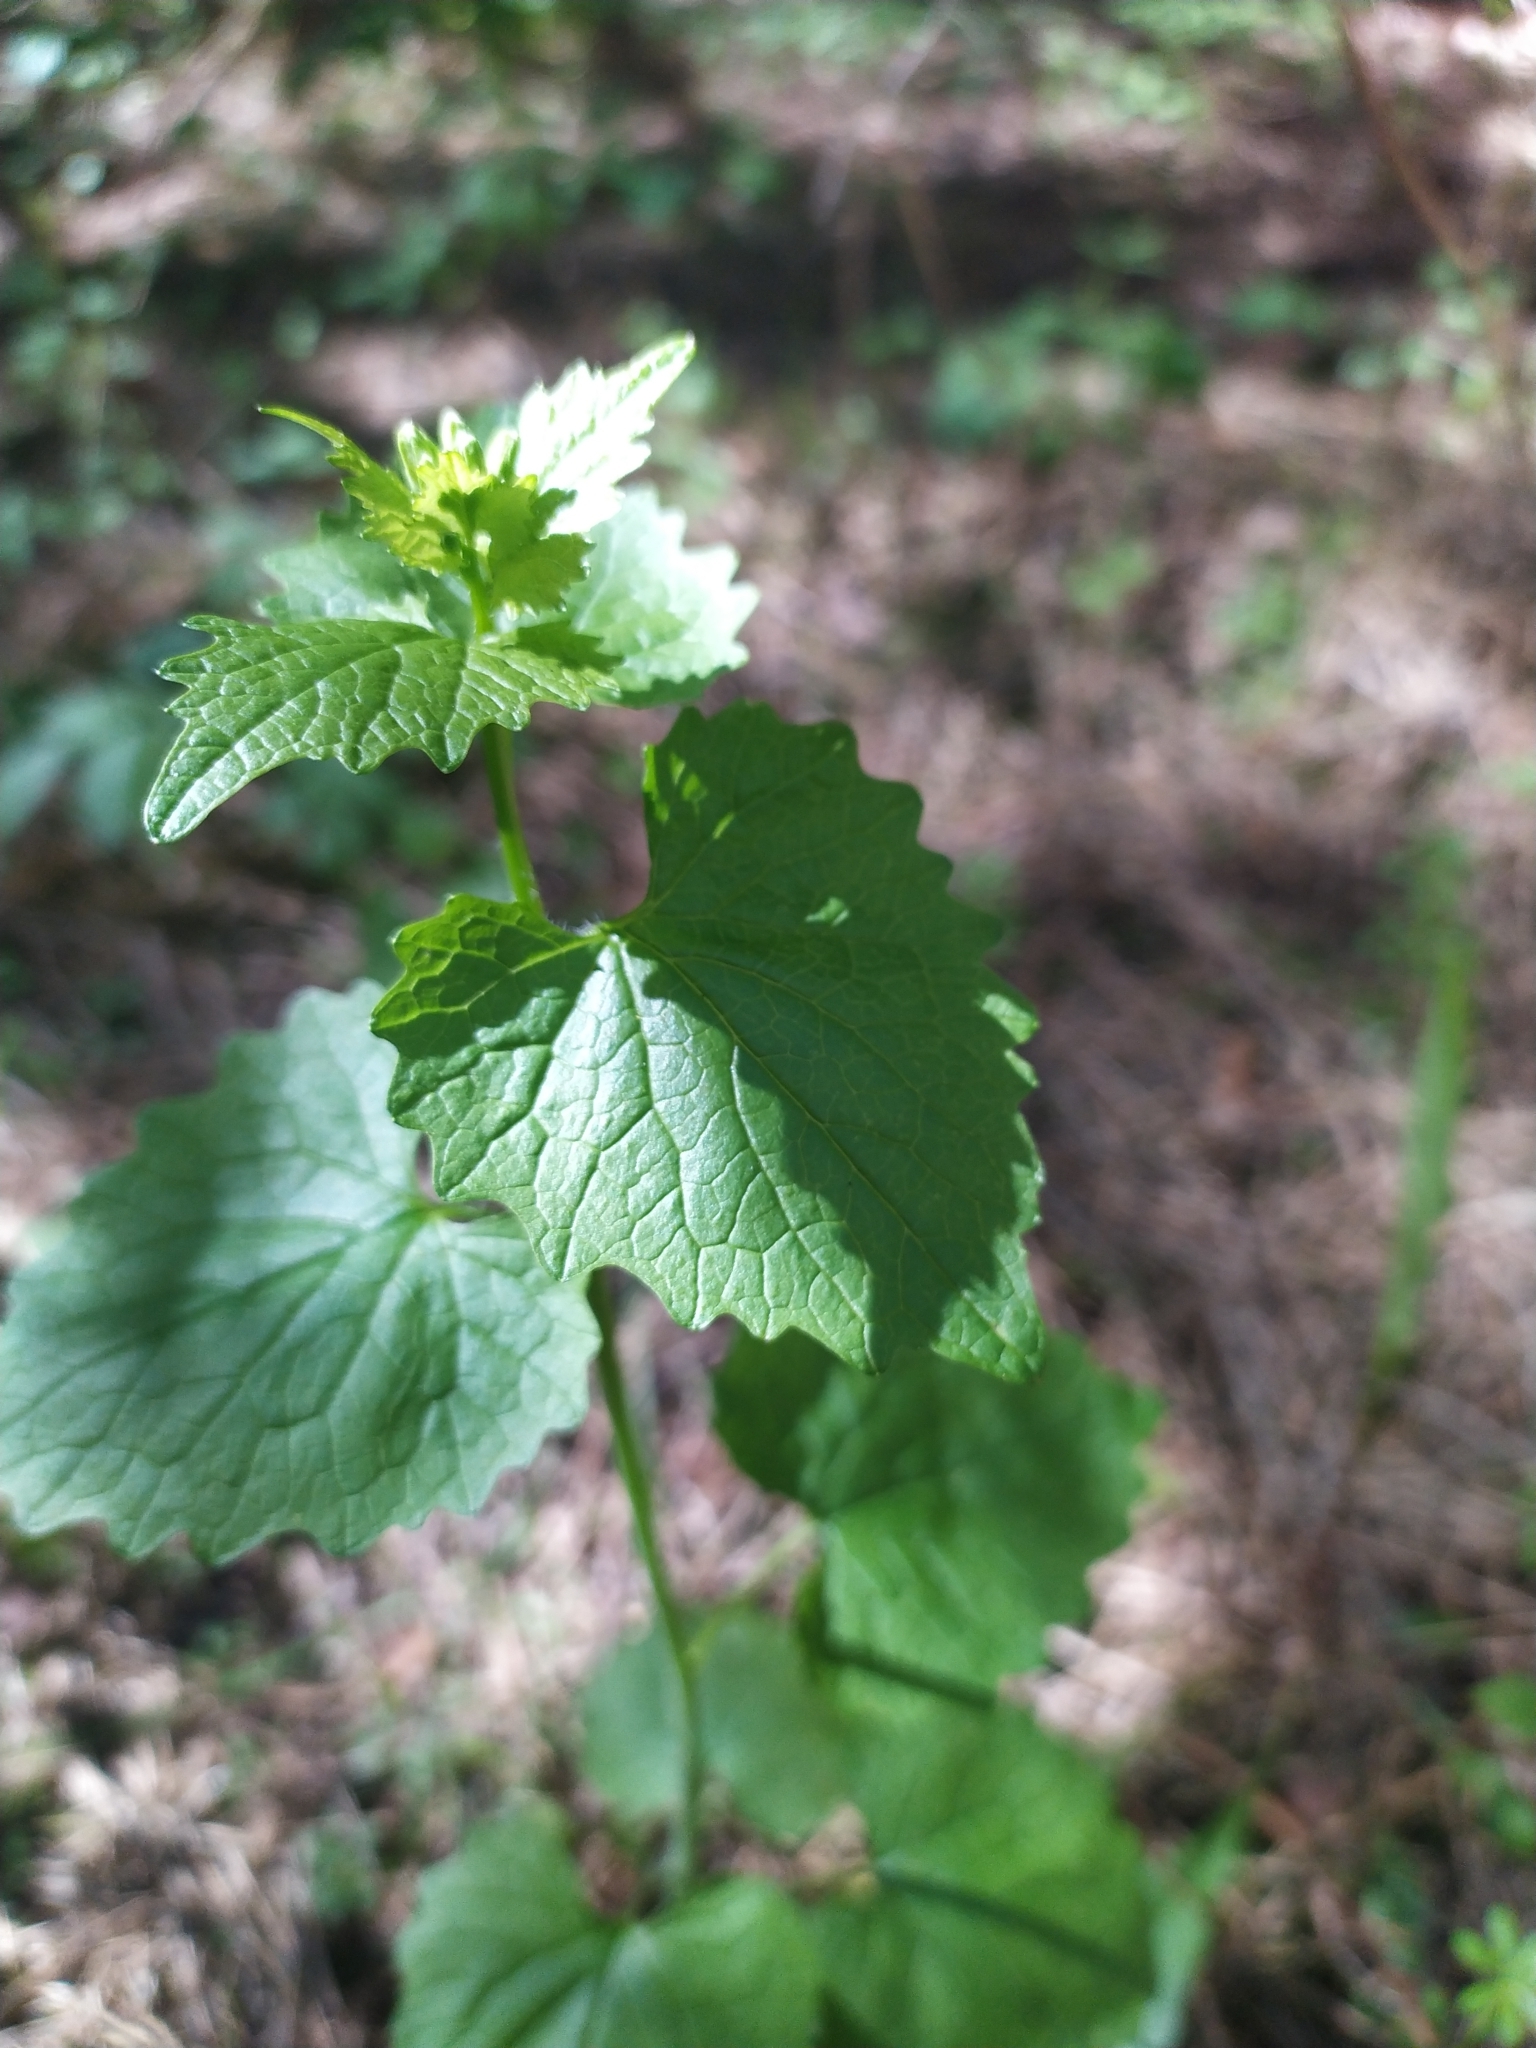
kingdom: Plantae
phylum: Tracheophyta
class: Magnoliopsida
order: Brassicales
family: Brassicaceae
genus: Alliaria
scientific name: Alliaria petiolata
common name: Garlic mustard
